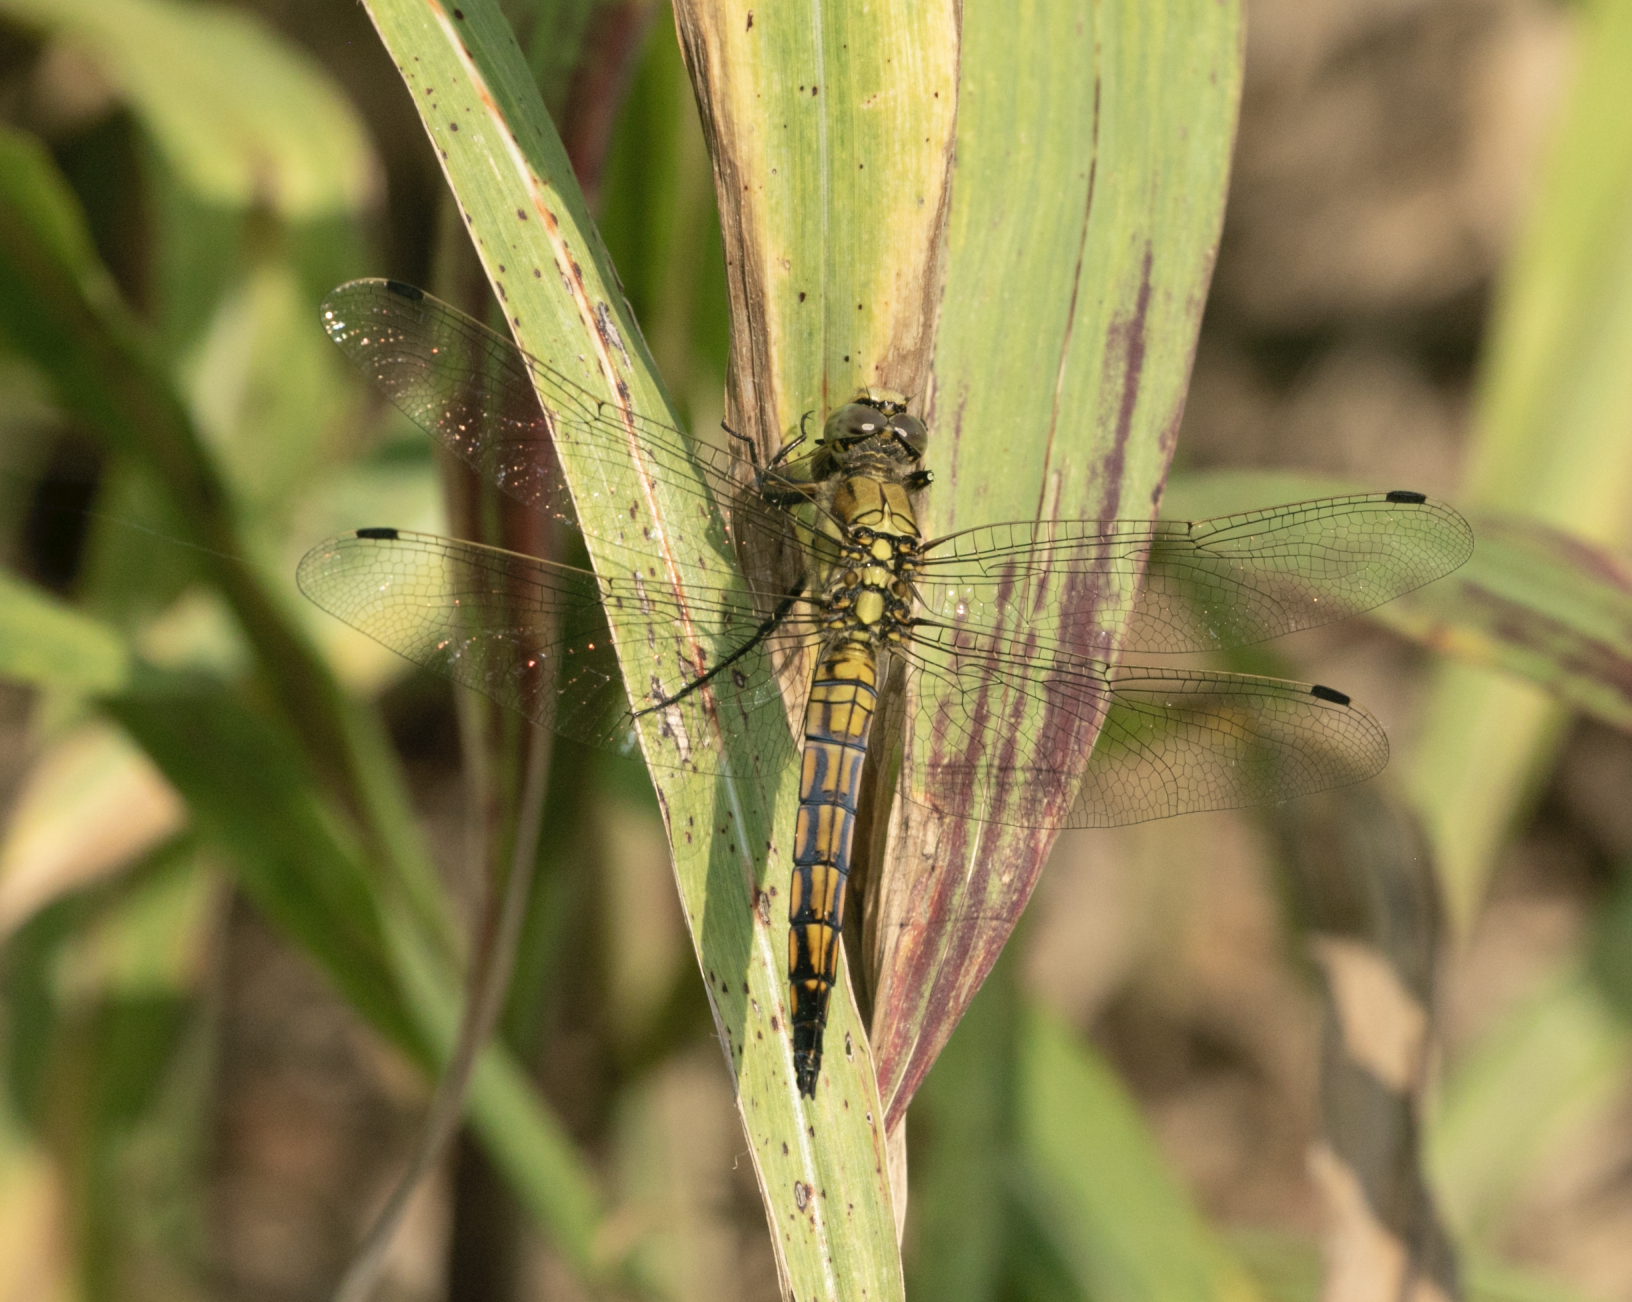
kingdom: Animalia
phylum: Arthropoda
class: Insecta
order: Odonata
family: Libellulidae
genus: Orthetrum
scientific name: Orthetrum cancellatum
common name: Black-tailed skimmer
